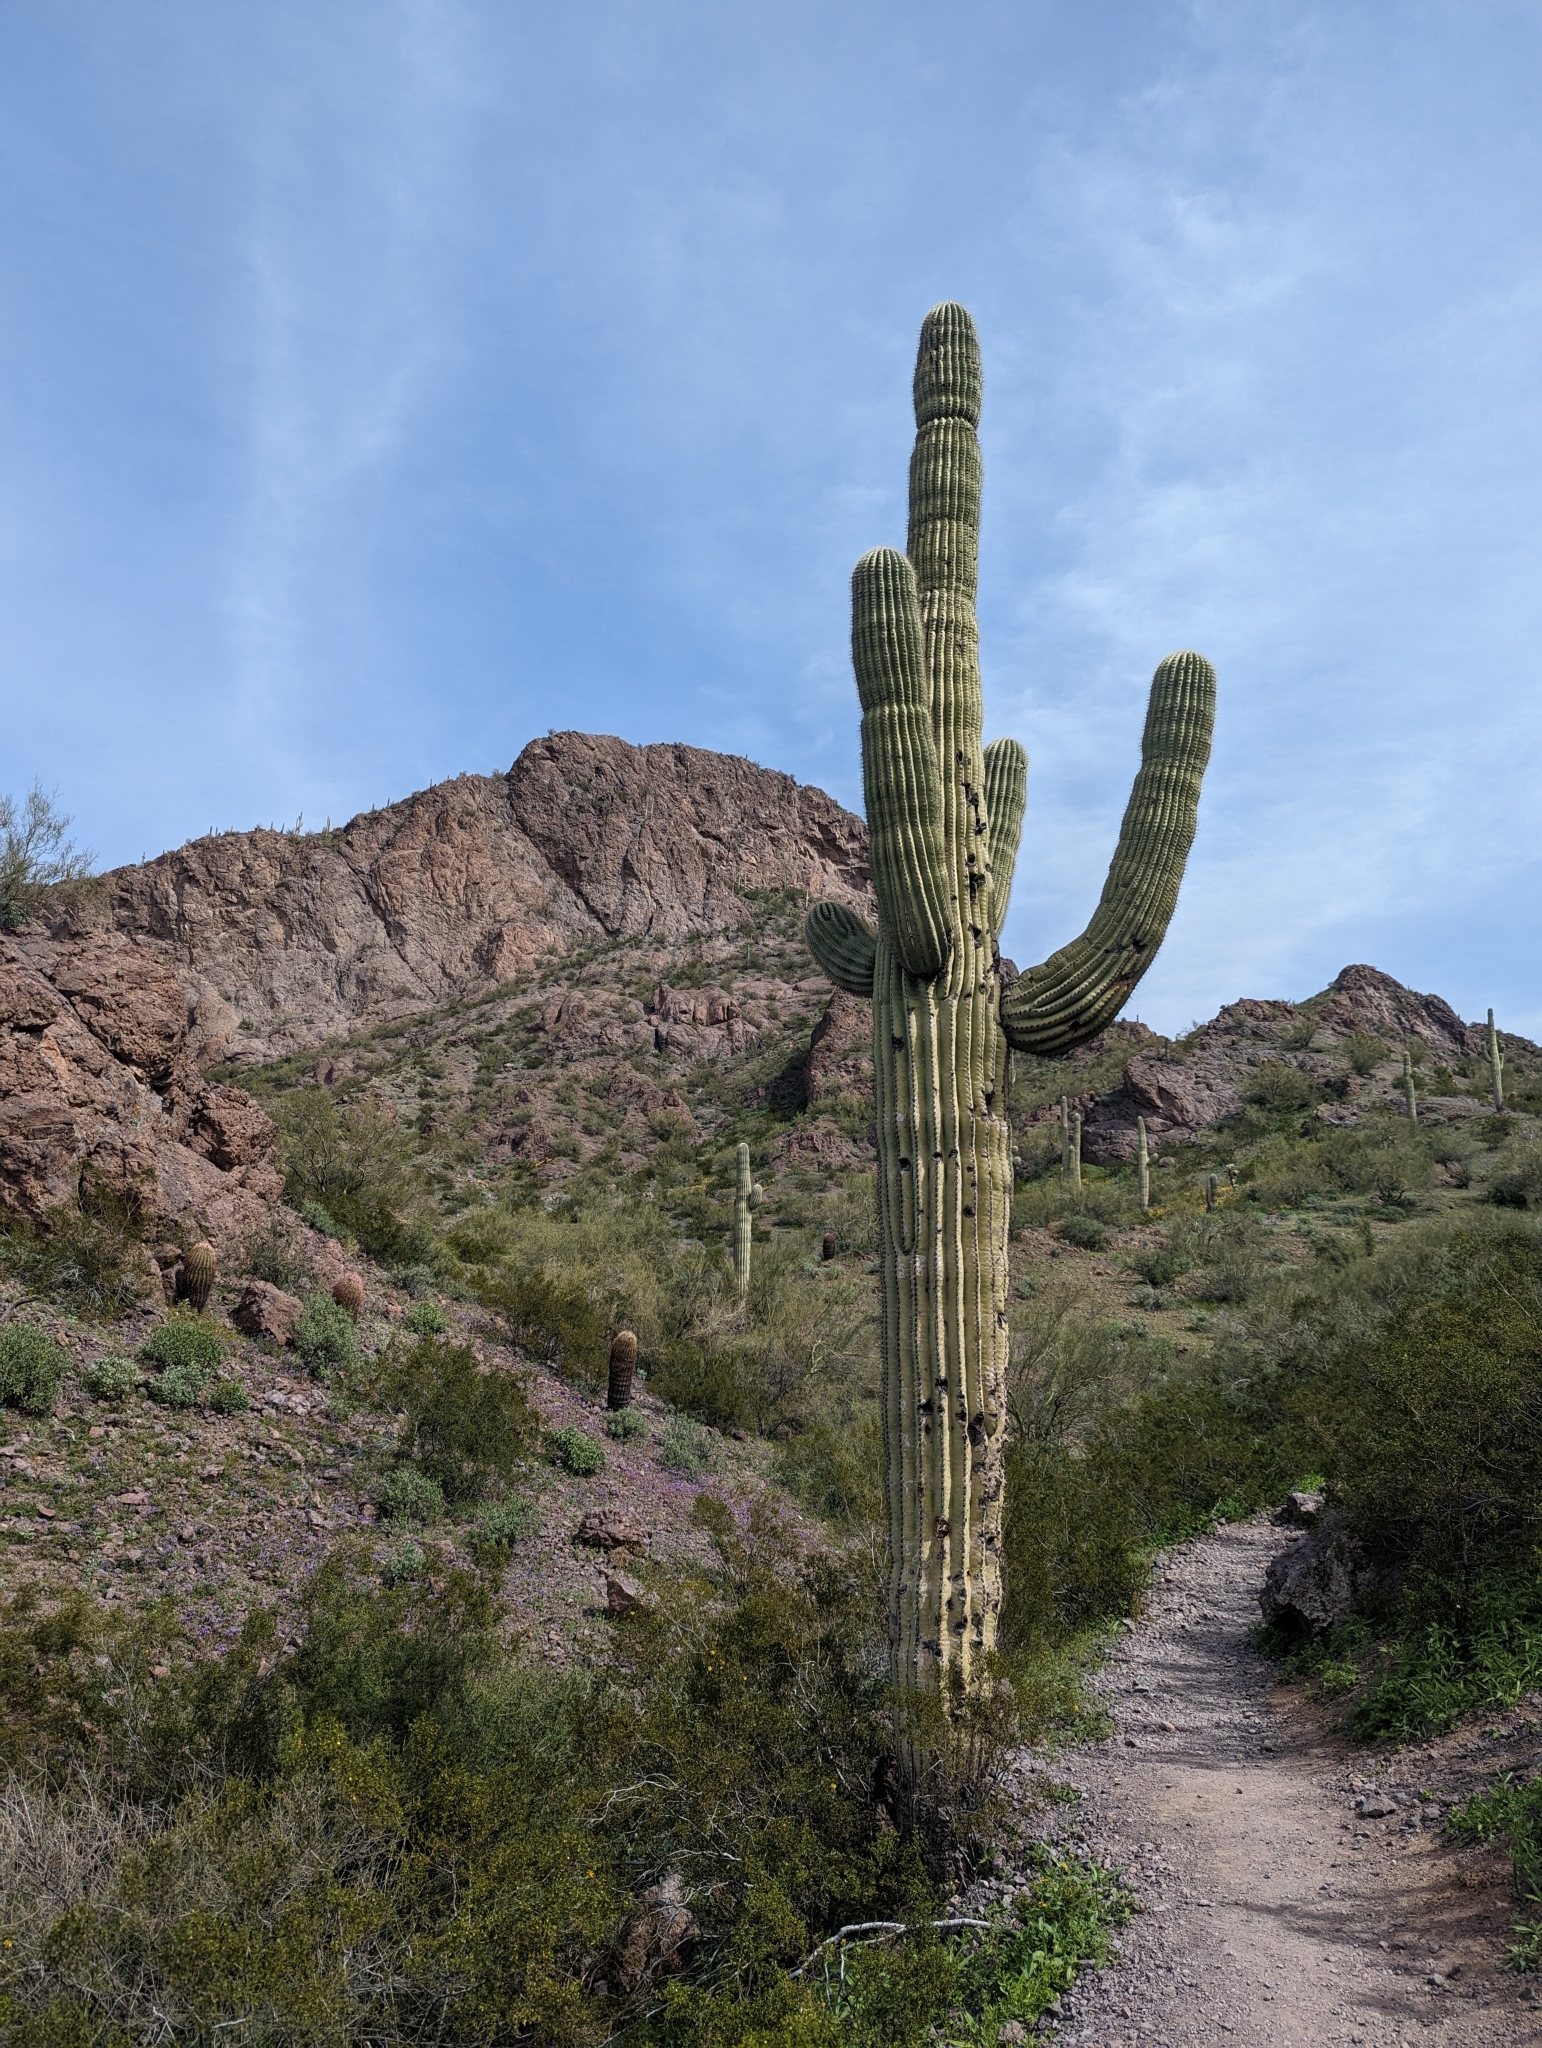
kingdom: Plantae
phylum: Tracheophyta
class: Magnoliopsida
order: Caryophyllales
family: Cactaceae
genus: Carnegiea
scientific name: Carnegiea gigantea
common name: Saguaro
